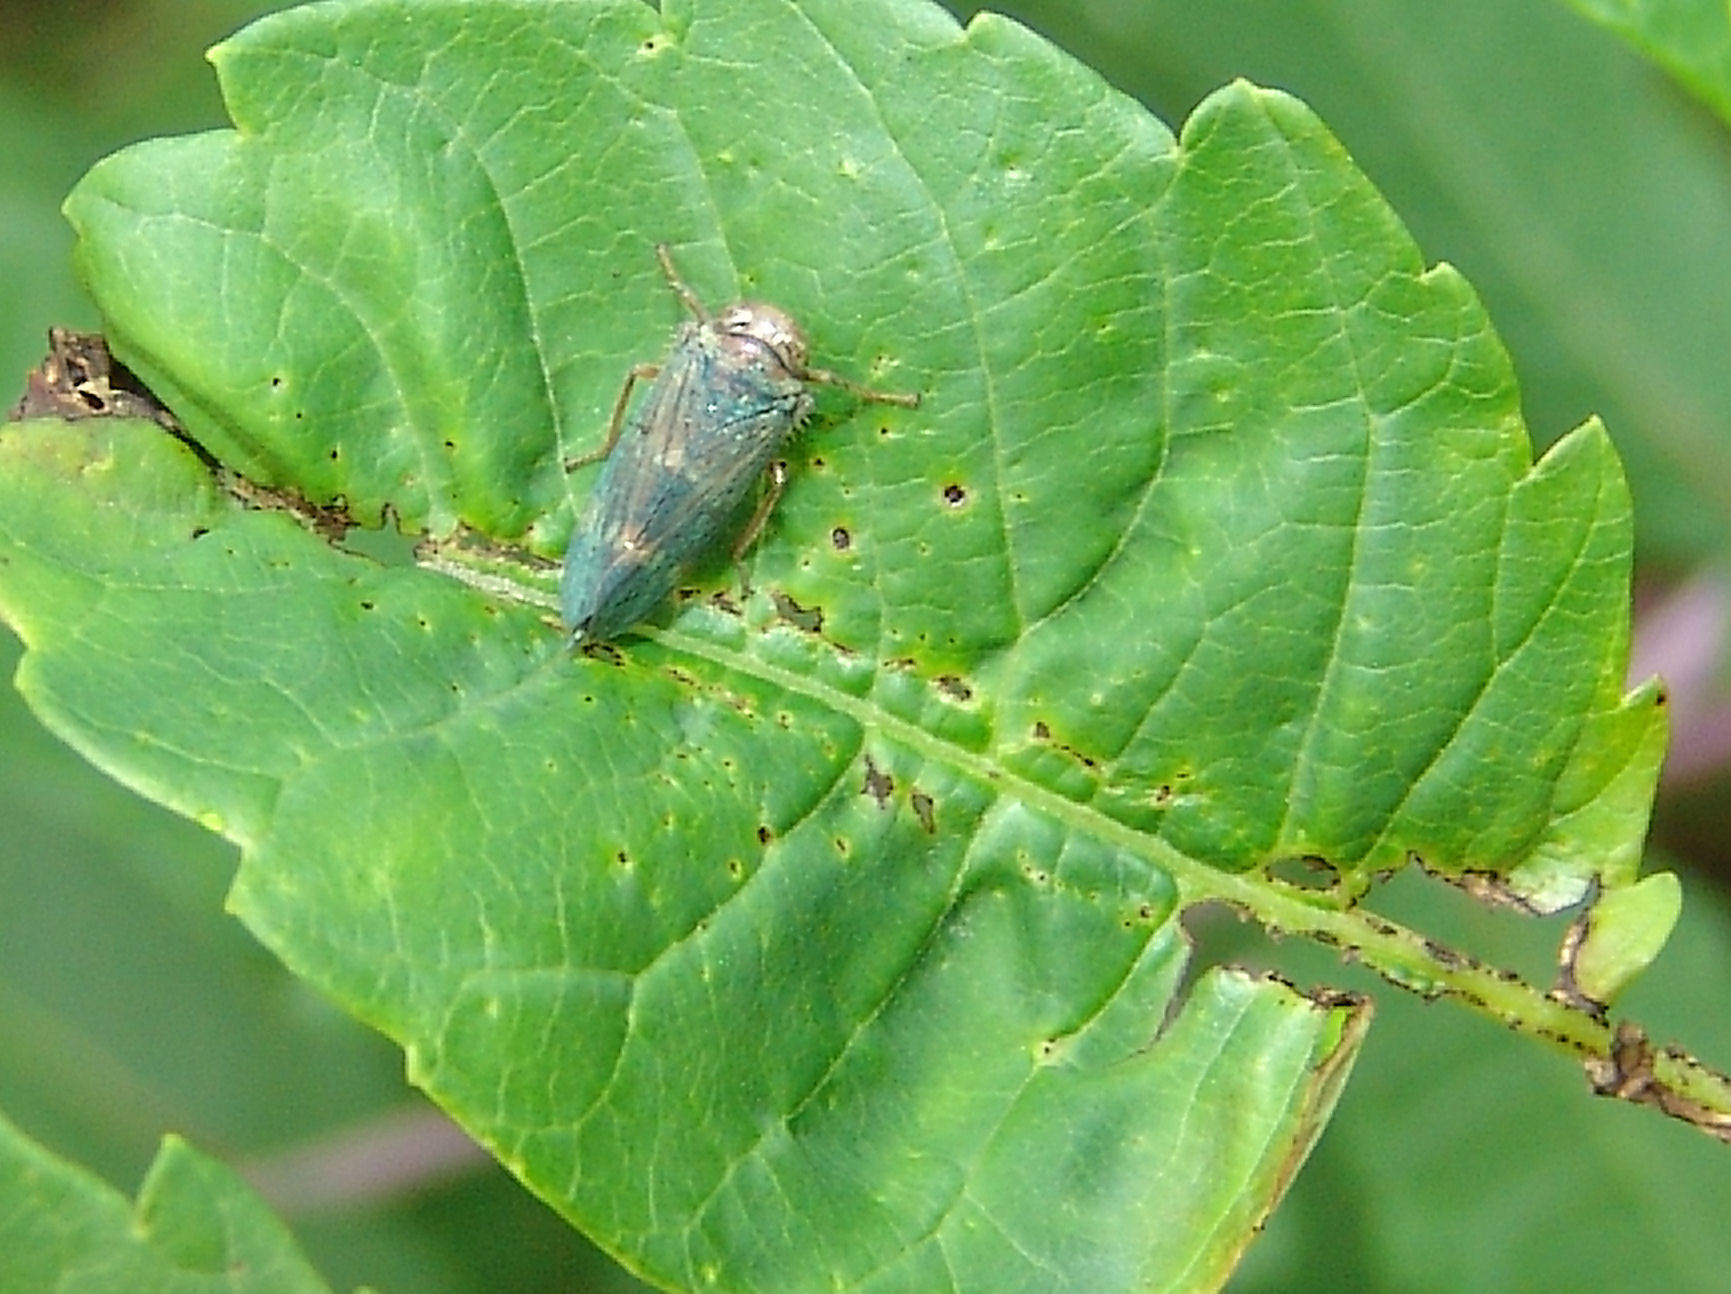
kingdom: Animalia
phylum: Arthropoda
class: Insecta
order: Hemiptera
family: Cicadellidae
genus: Jikradia
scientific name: Jikradia olitoria
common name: Coppery leafhopper
